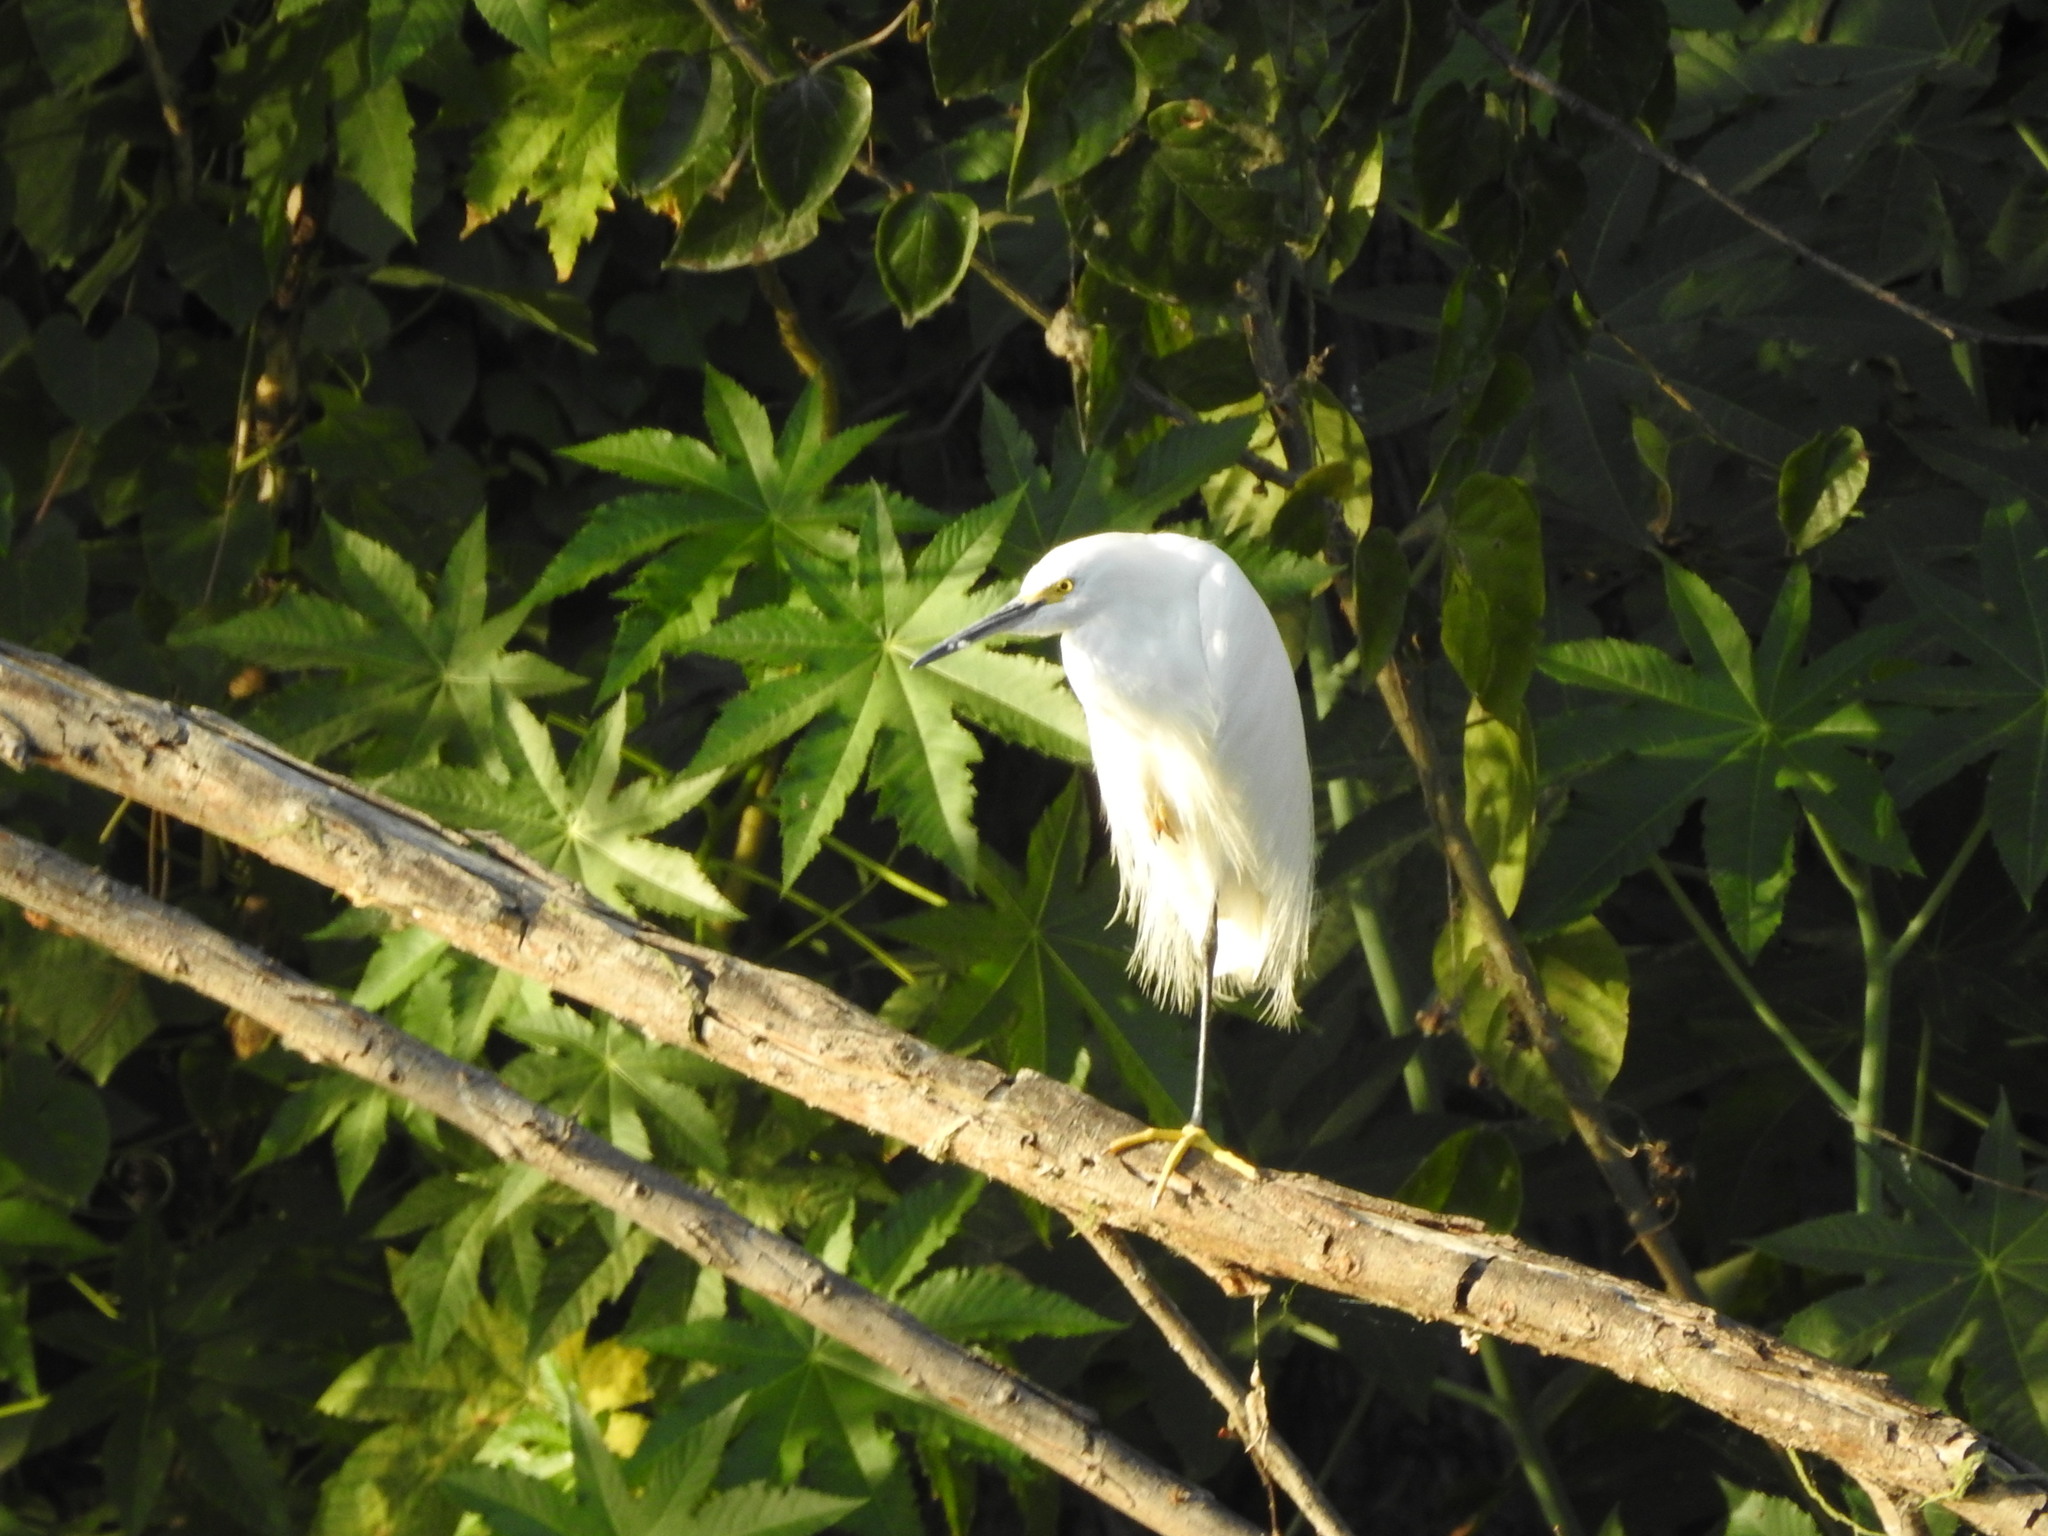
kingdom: Animalia
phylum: Chordata
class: Aves
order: Pelecaniformes
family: Ardeidae
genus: Egretta
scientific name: Egretta thula
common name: Snowy egret
